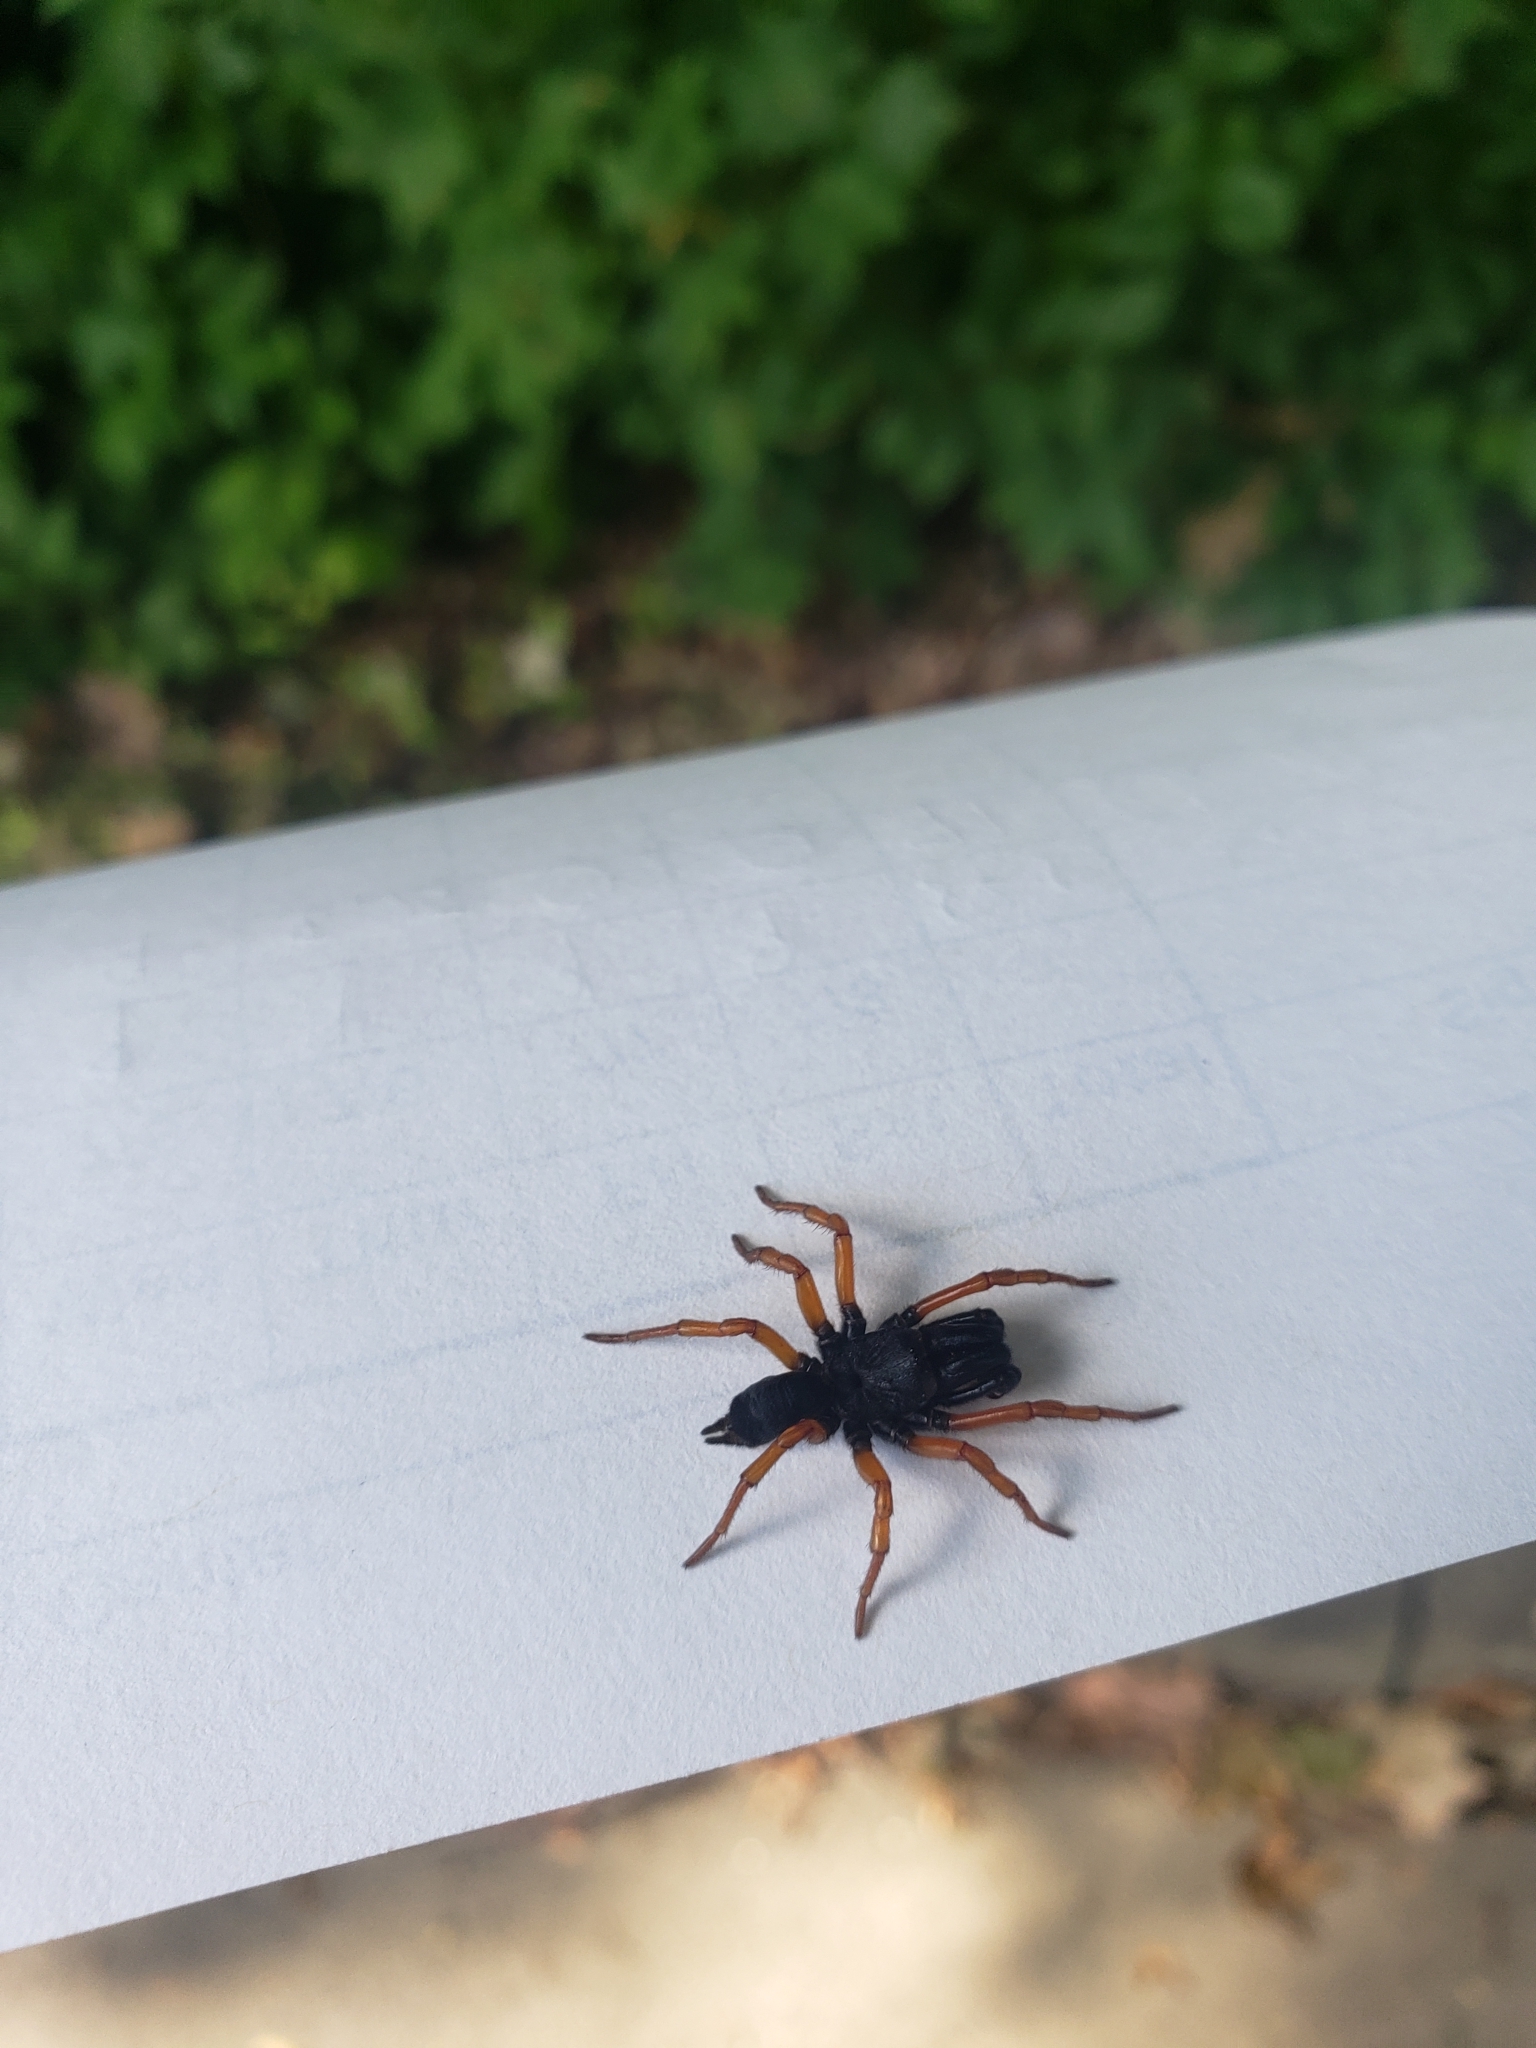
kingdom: Animalia
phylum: Arthropoda
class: Arachnida
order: Araneae
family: Atypidae
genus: Sphodros
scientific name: Sphodros rufipes
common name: Red-legged purseweb spider
